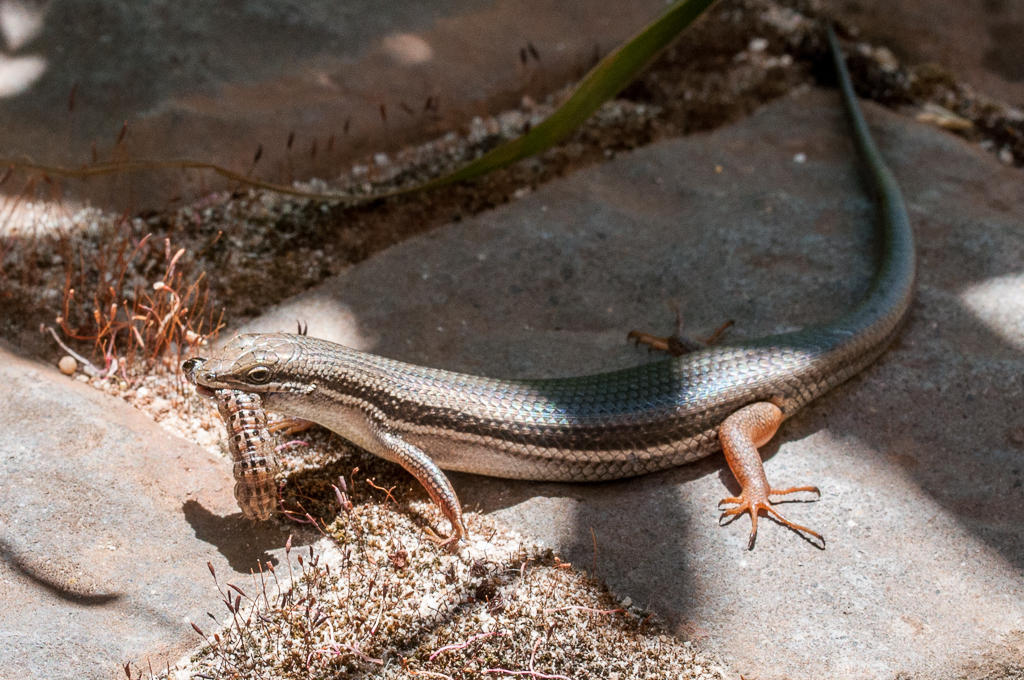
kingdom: Animalia
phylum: Chordata
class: Squamata
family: Scincidae
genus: Trachylepis
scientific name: Trachylepis homalocephala
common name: Red-sided skink
